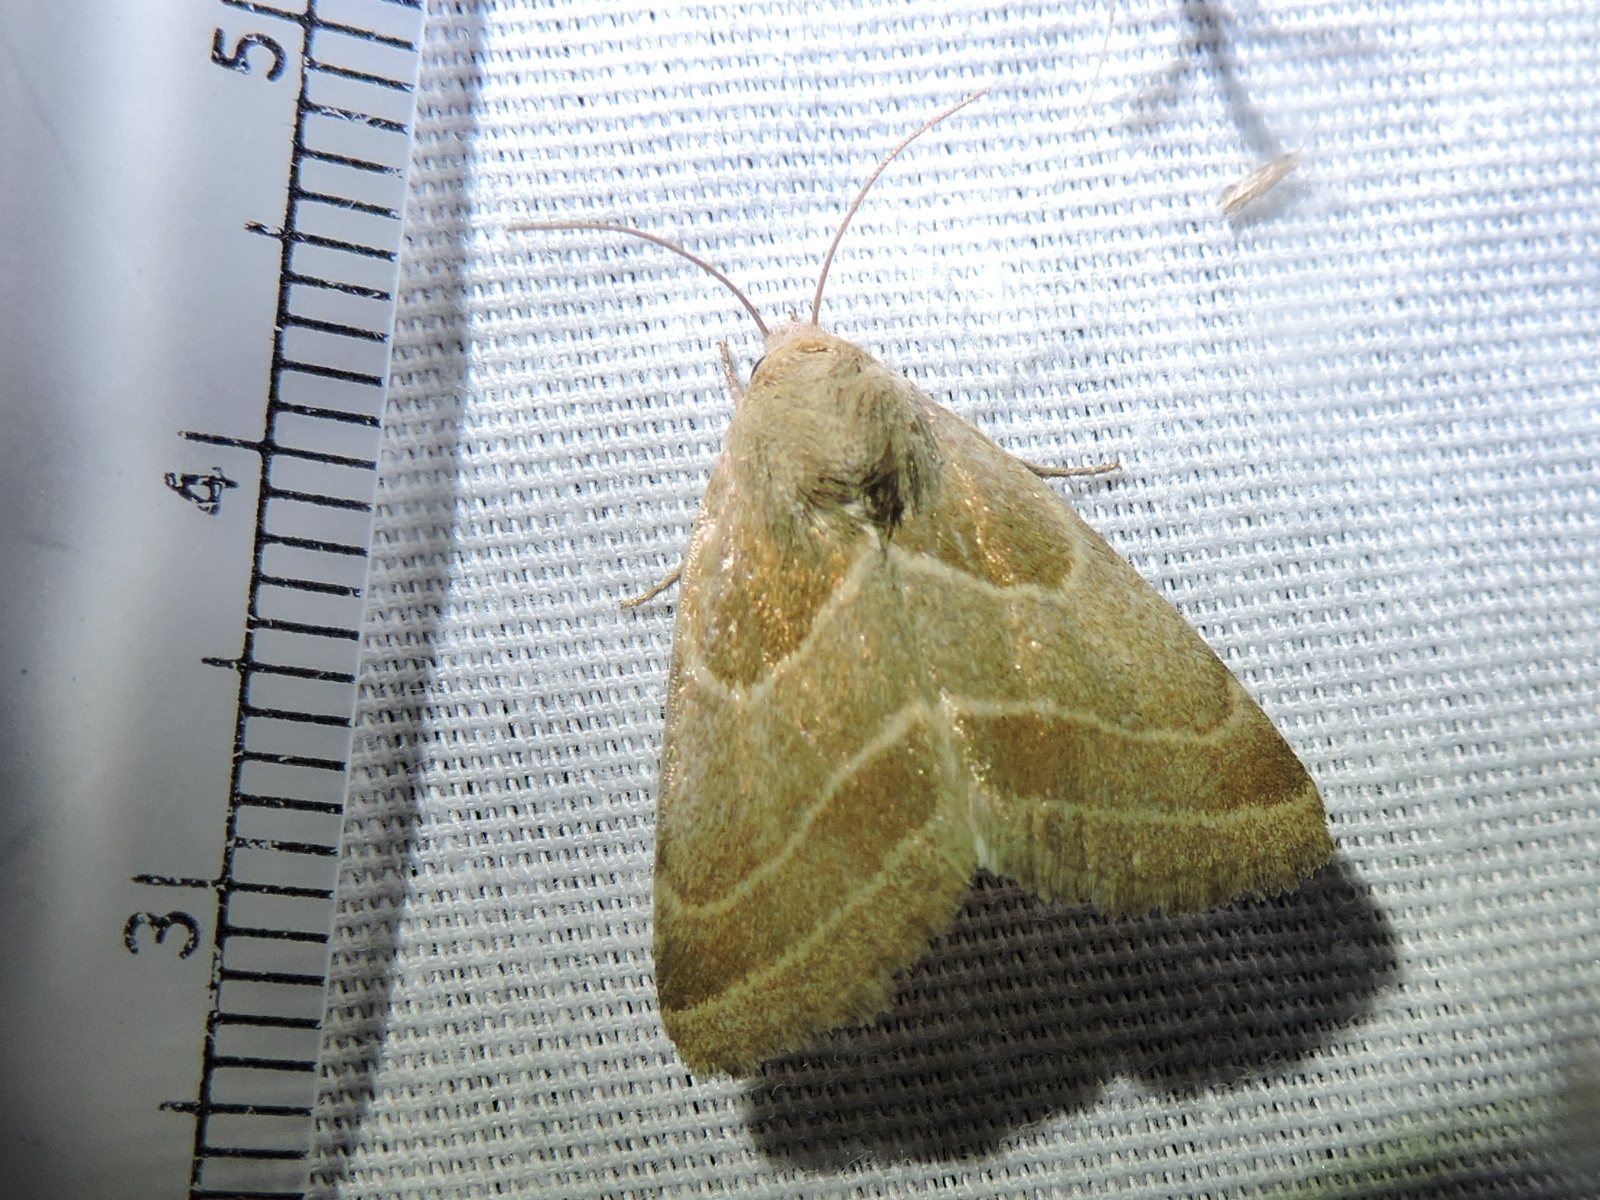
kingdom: Animalia
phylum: Arthropoda
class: Insecta
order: Lepidoptera
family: Noctuidae
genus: Schinia
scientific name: Schinia grandimedia
